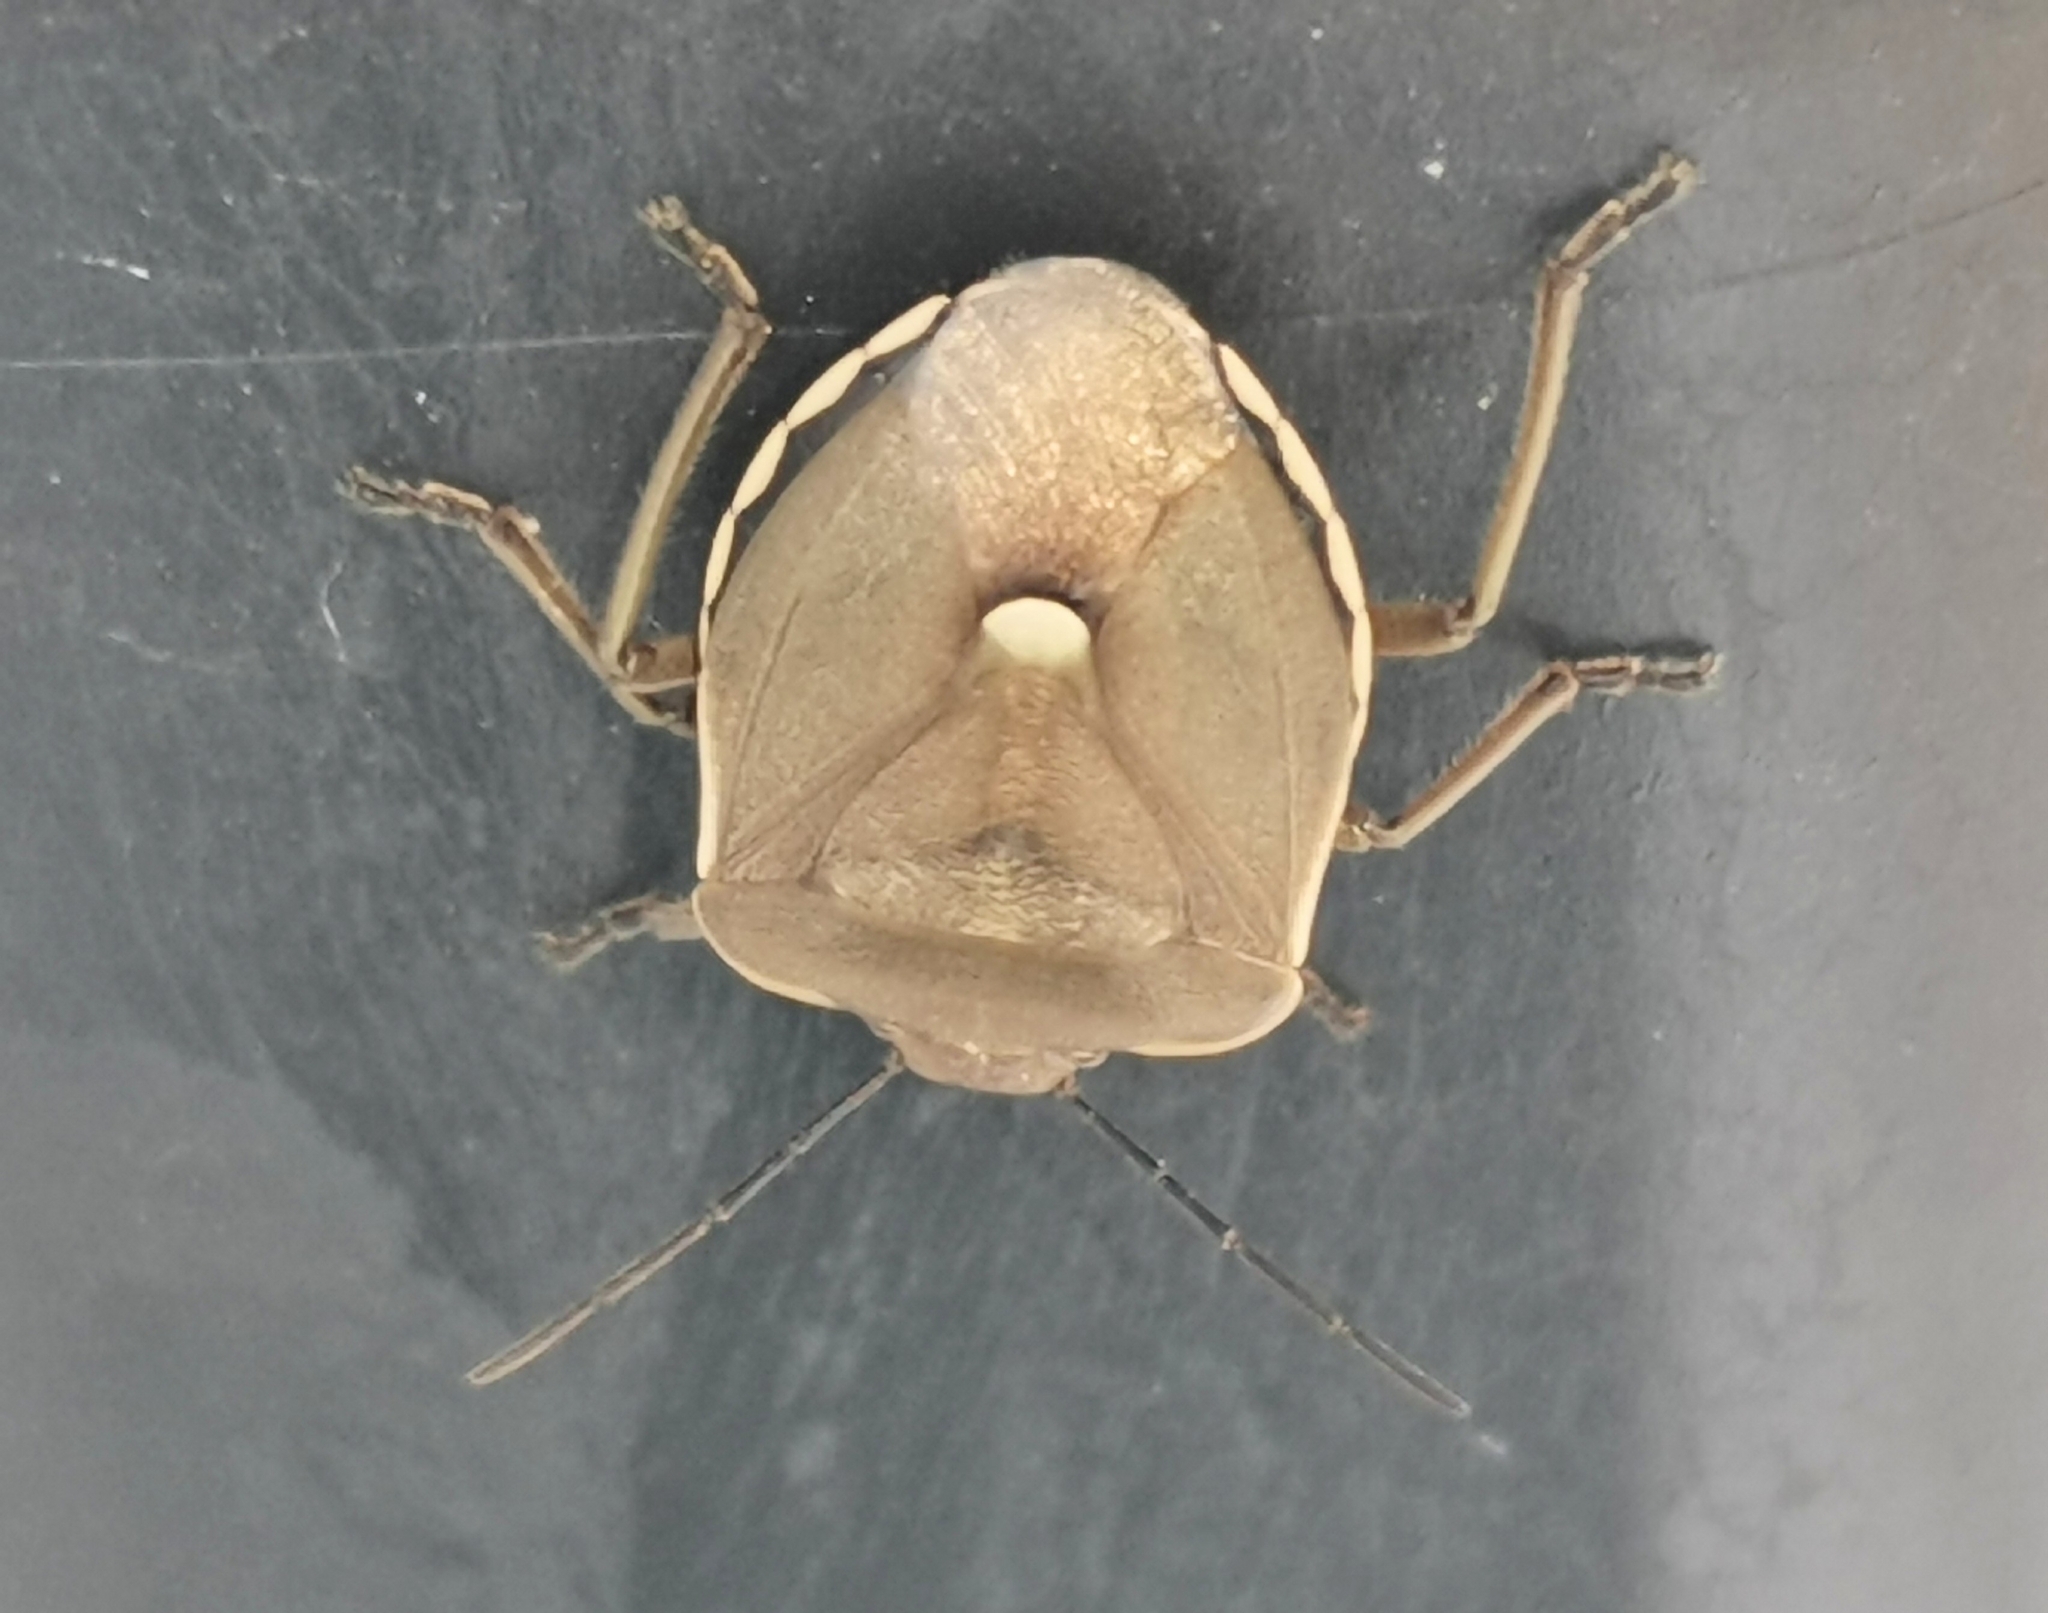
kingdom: Animalia
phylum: Arthropoda
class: Insecta
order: Hemiptera
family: Pentatomidae
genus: Chlorochroa
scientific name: Chlorochroa pinicola
